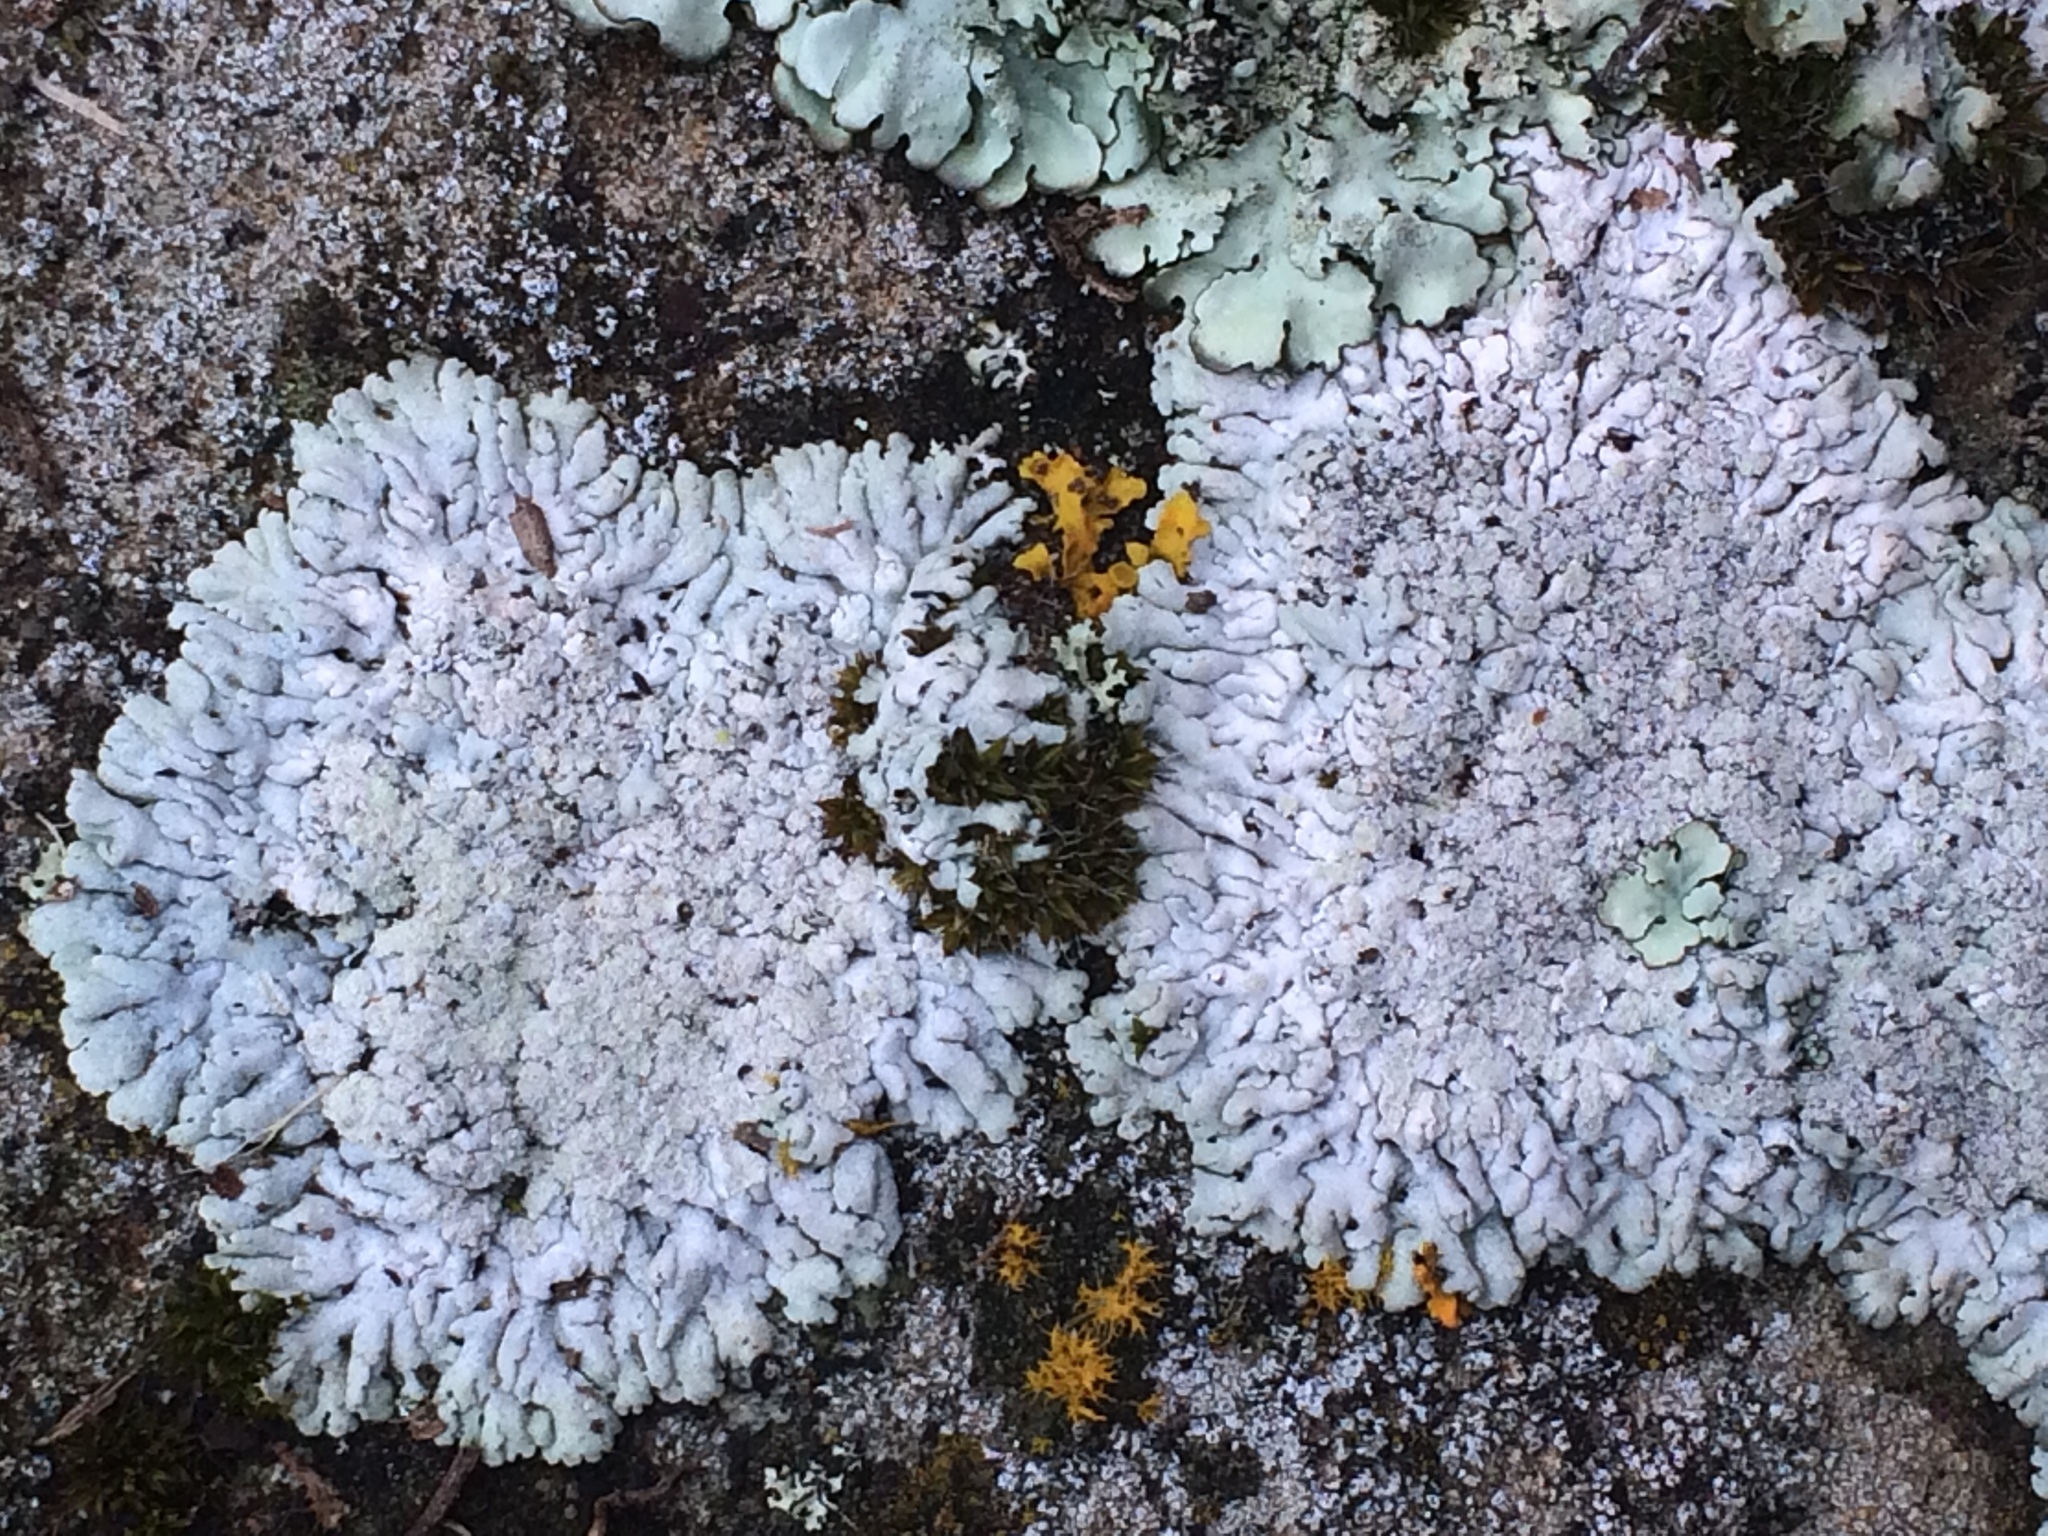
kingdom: Fungi
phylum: Ascomycota
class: Lecanoromycetes
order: Caliciales
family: Physciaceae
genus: Physcia
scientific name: Physcia caesia
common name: Blue-gray rosette lichen
